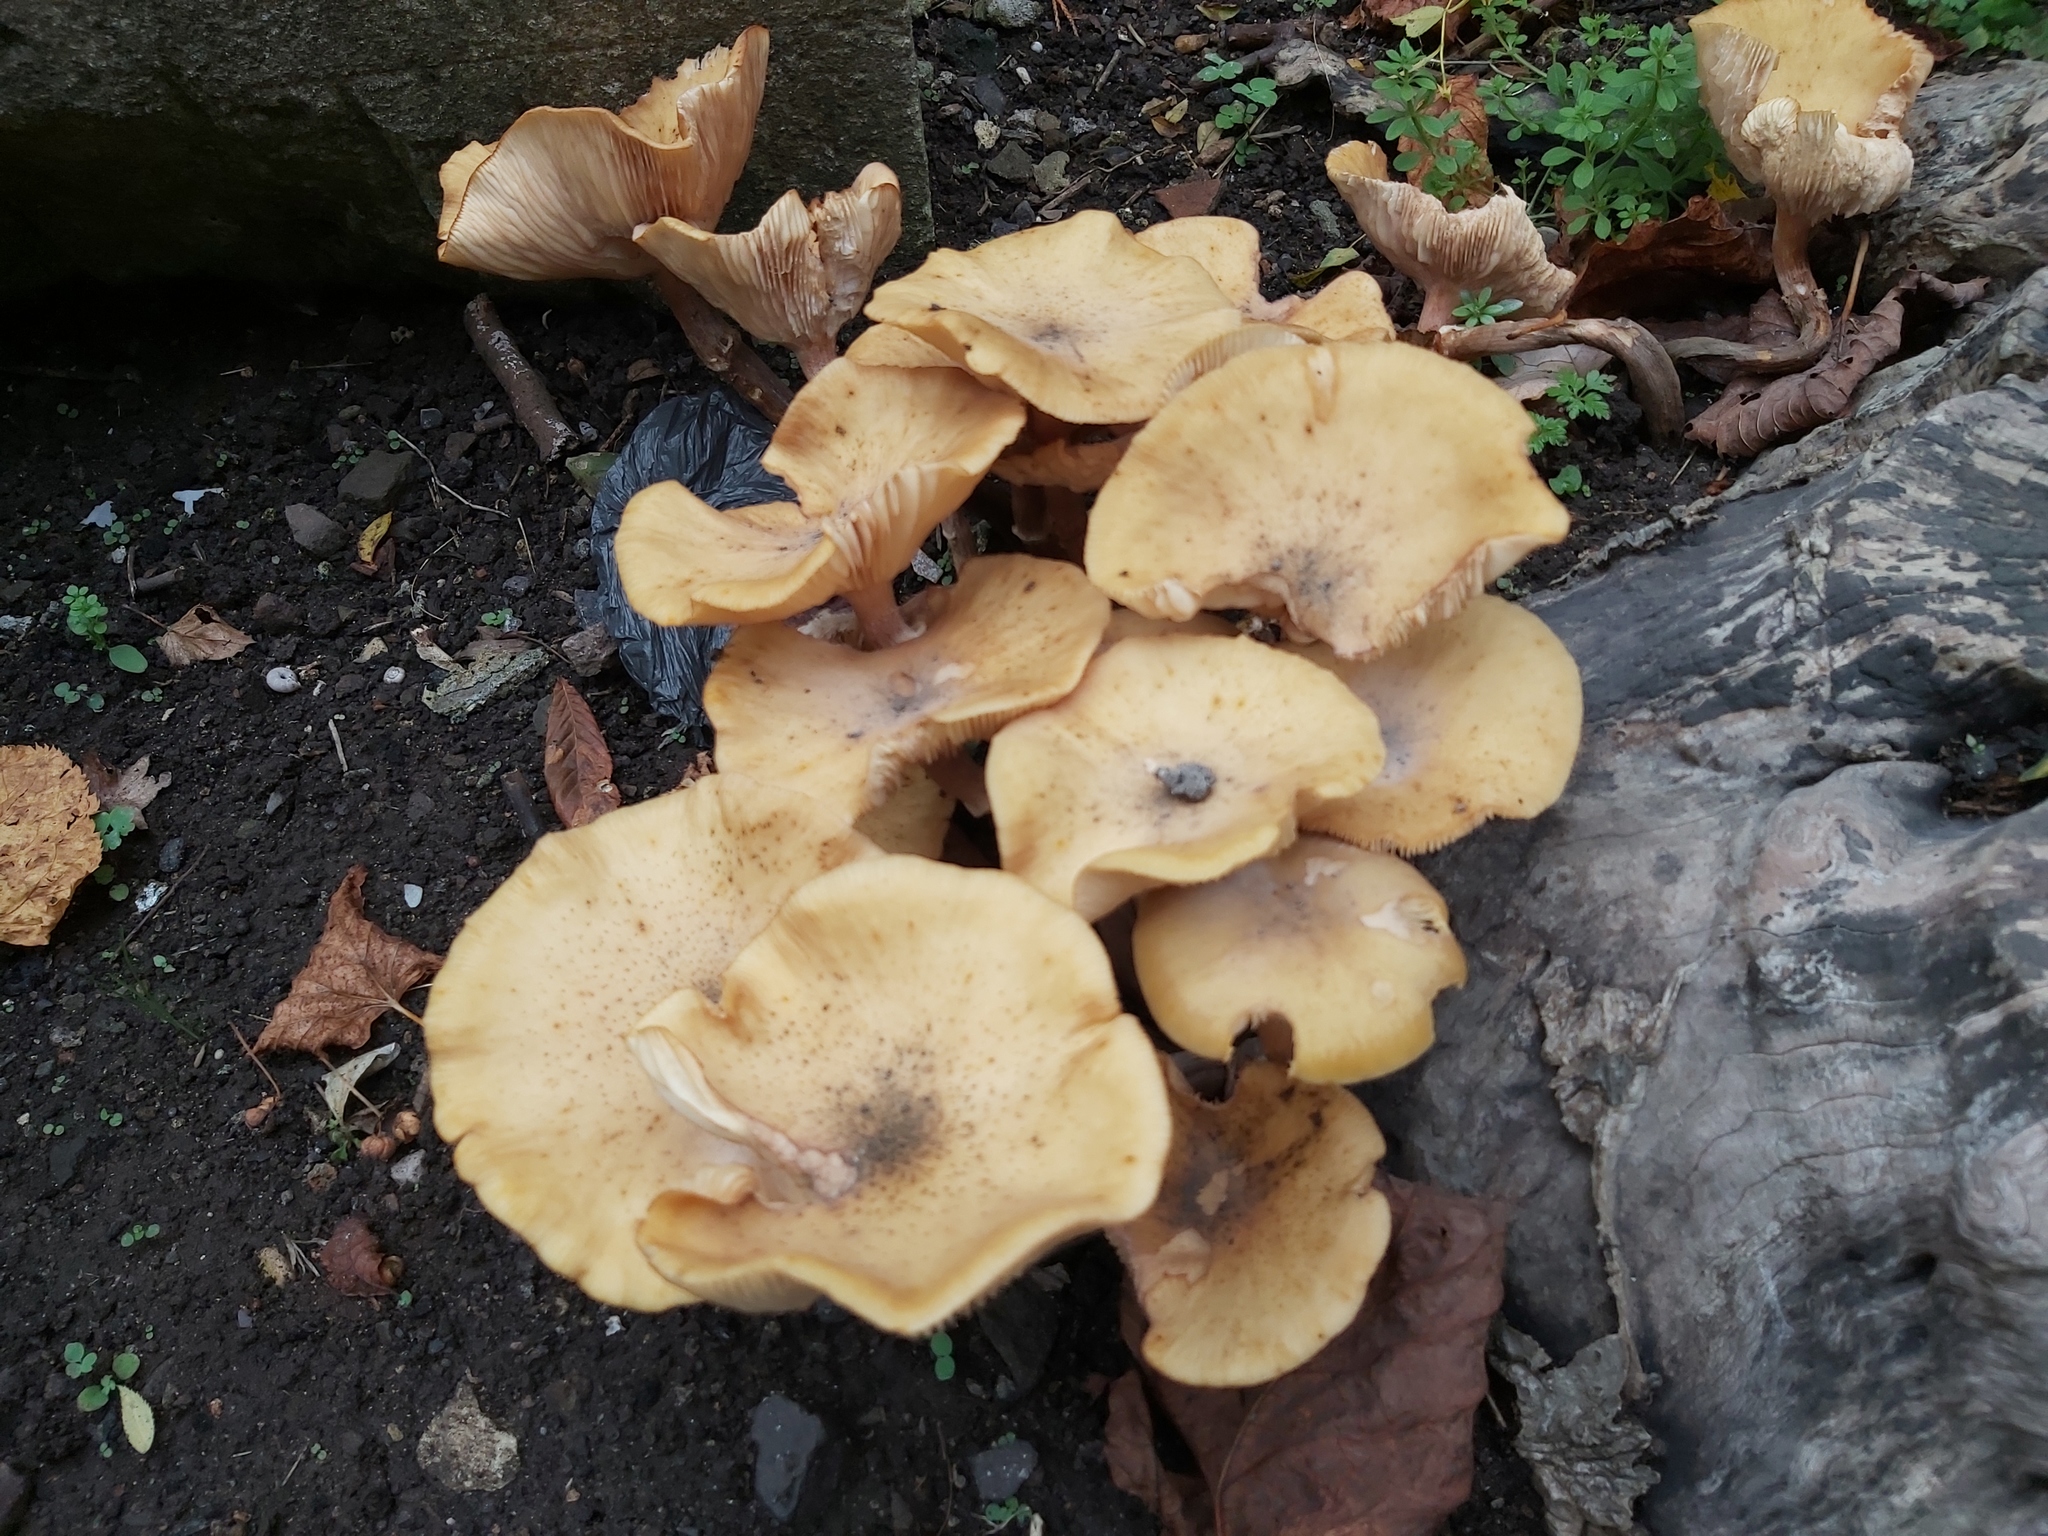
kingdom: Fungi
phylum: Basidiomycota
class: Agaricomycetes
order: Agaricales
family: Physalacriaceae
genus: Armillaria
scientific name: Armillaria mellea
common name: Honey fungus
